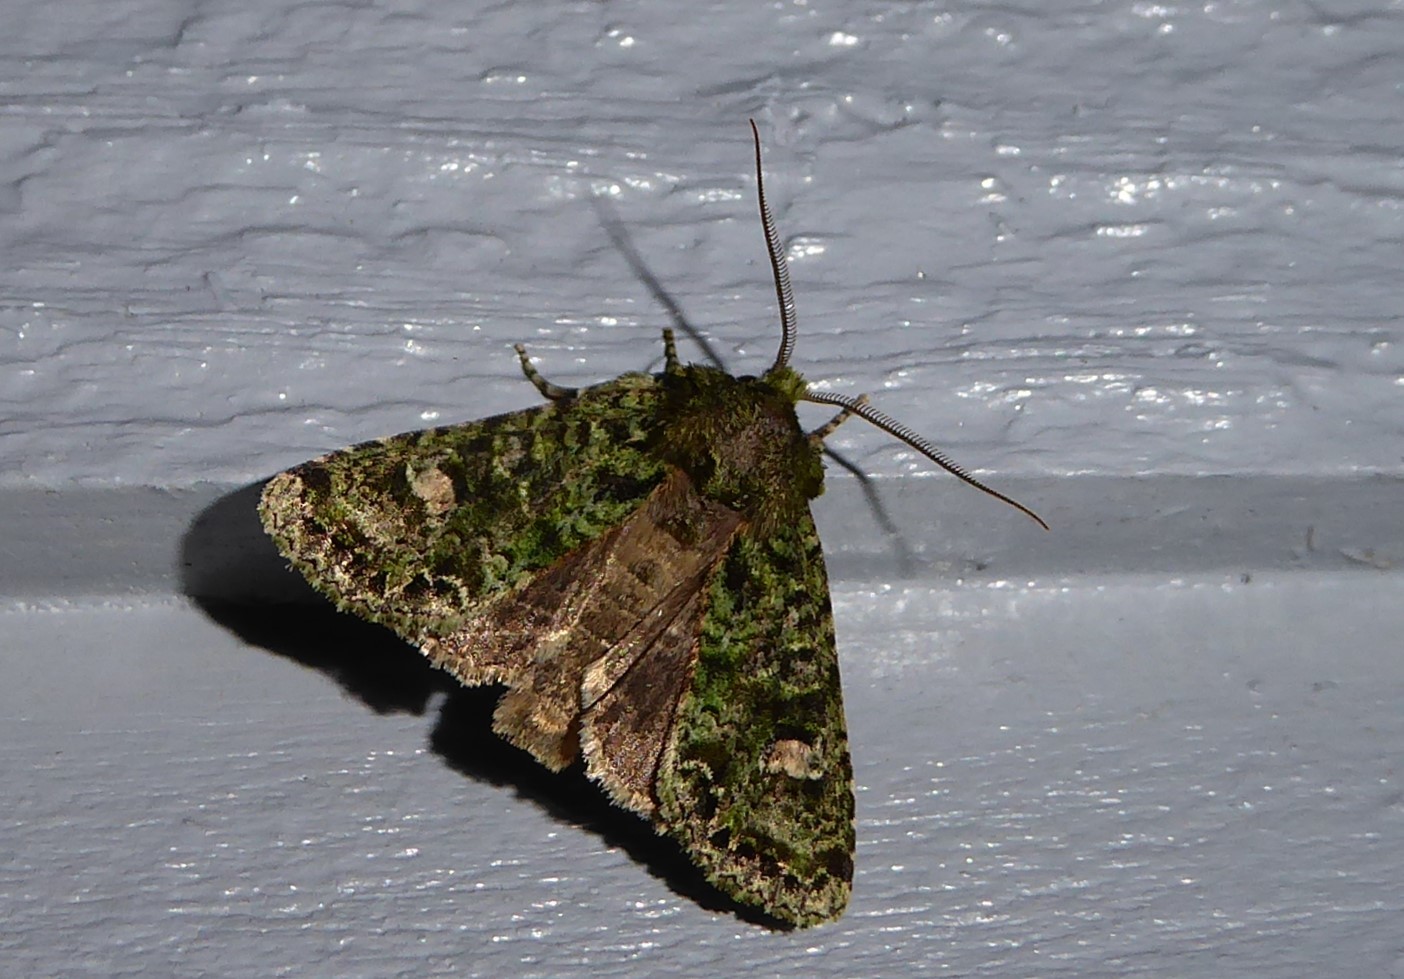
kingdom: Animalia
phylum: Arthropoda
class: Insecta
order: Lepidoptera
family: Noctuidae
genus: Ichneutica
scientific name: Ichneutica
